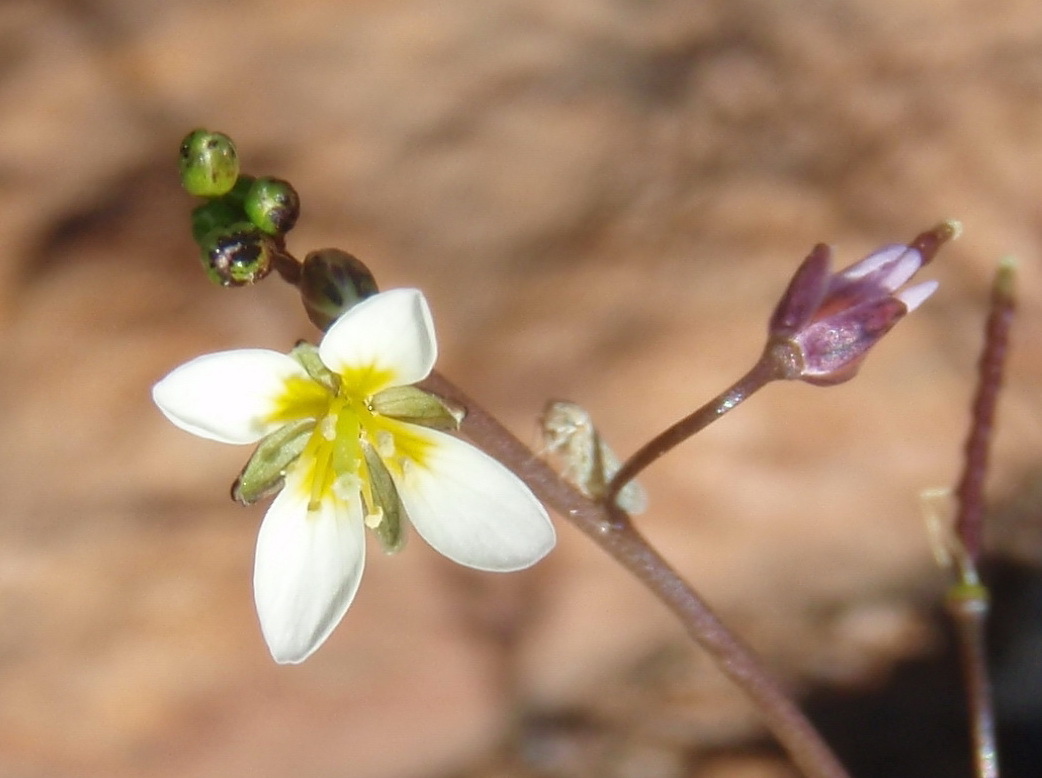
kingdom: Plantae
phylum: Tracheophyta
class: Magnoliopsida
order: Brassicales
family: Brassicaceae
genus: Heliophila
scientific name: Heliophila pendula
